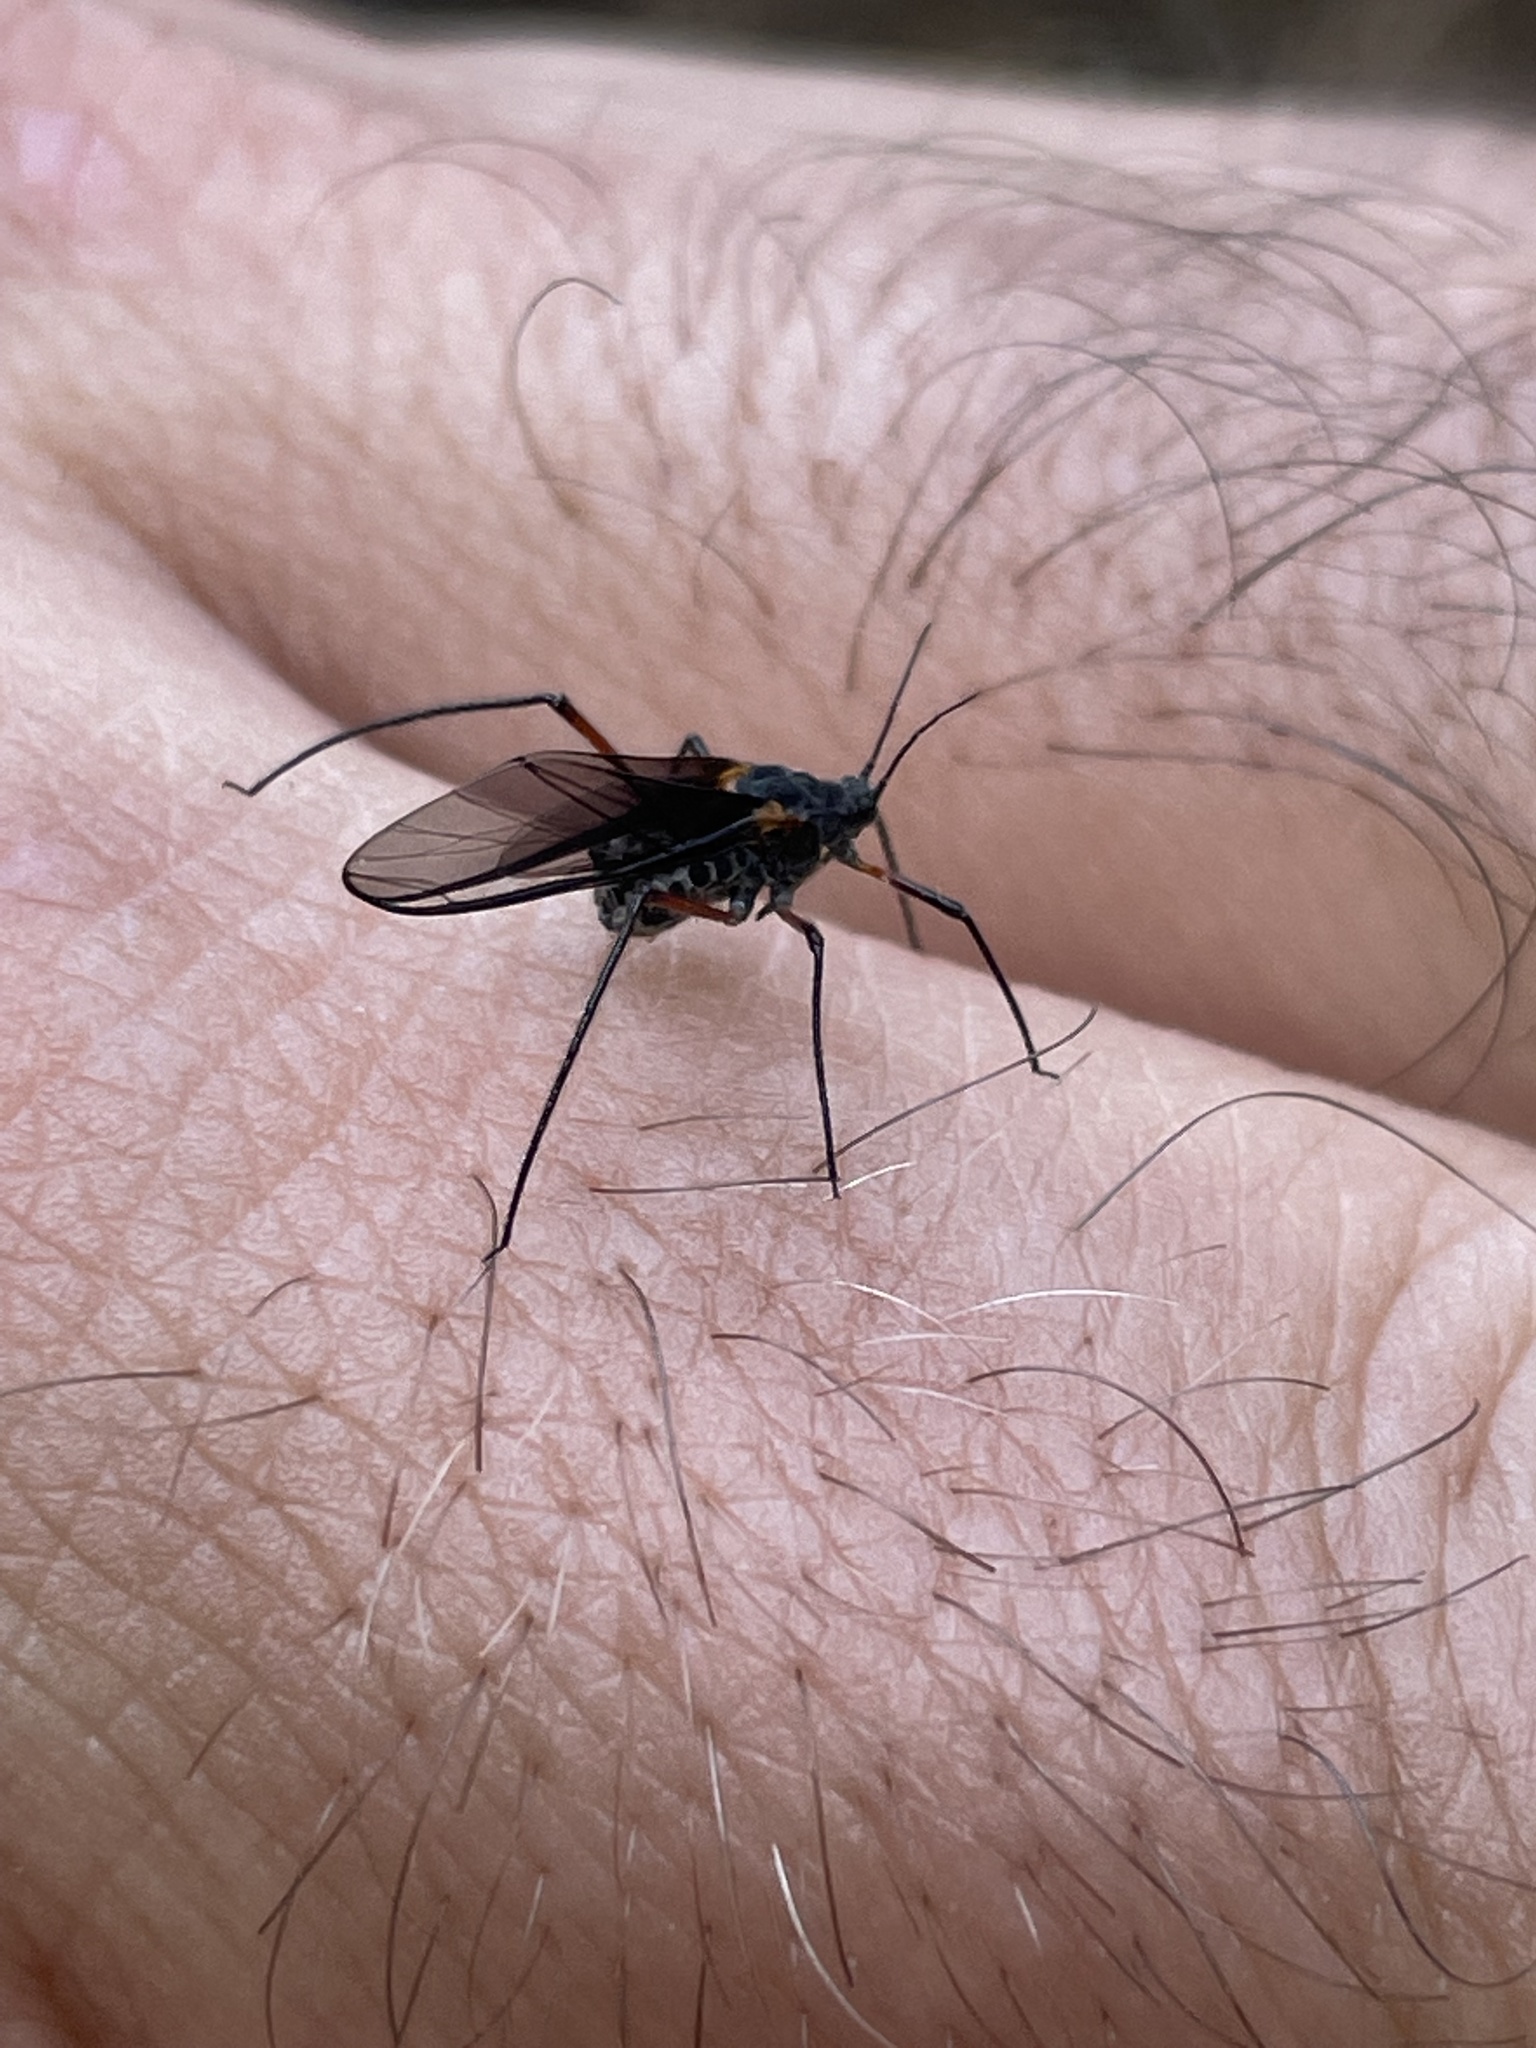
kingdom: Animalia
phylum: Arthropoda
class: Insecta
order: Hemiptera
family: Aphididae
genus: Longistigma
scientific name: Longistigma caryae
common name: Giant bark aphid
